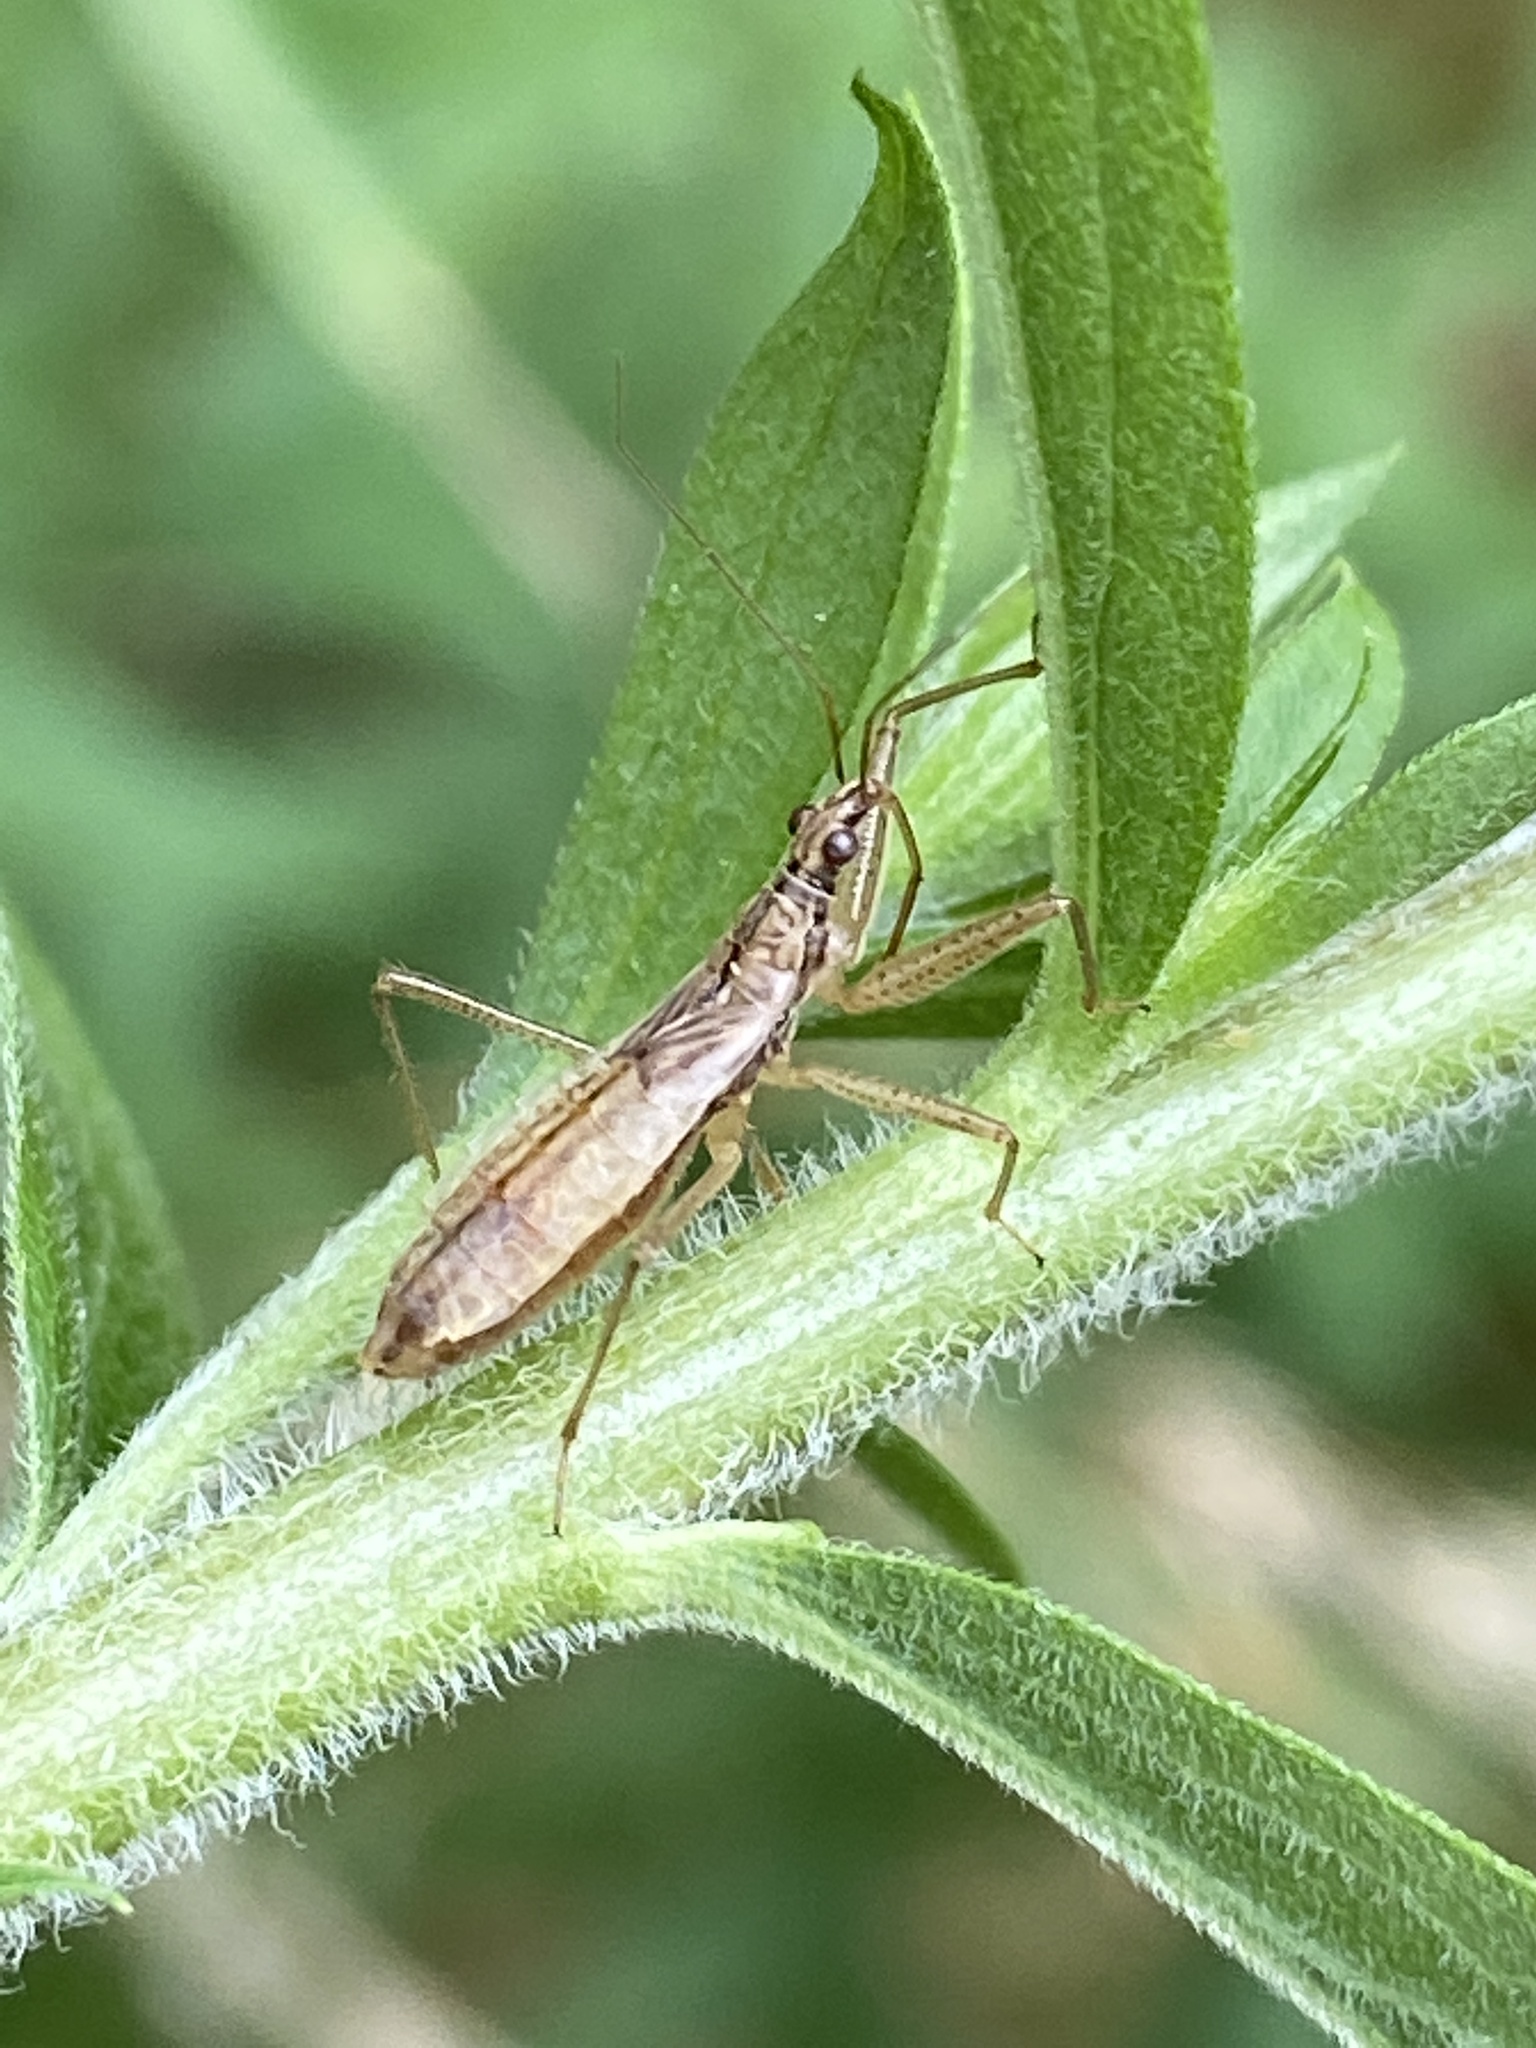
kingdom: Animalia
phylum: Arthropoda
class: Insecta
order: Hemiptera
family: Nabidae
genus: Nabis
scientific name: Nabis limbatus
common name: Marsh damselbug
